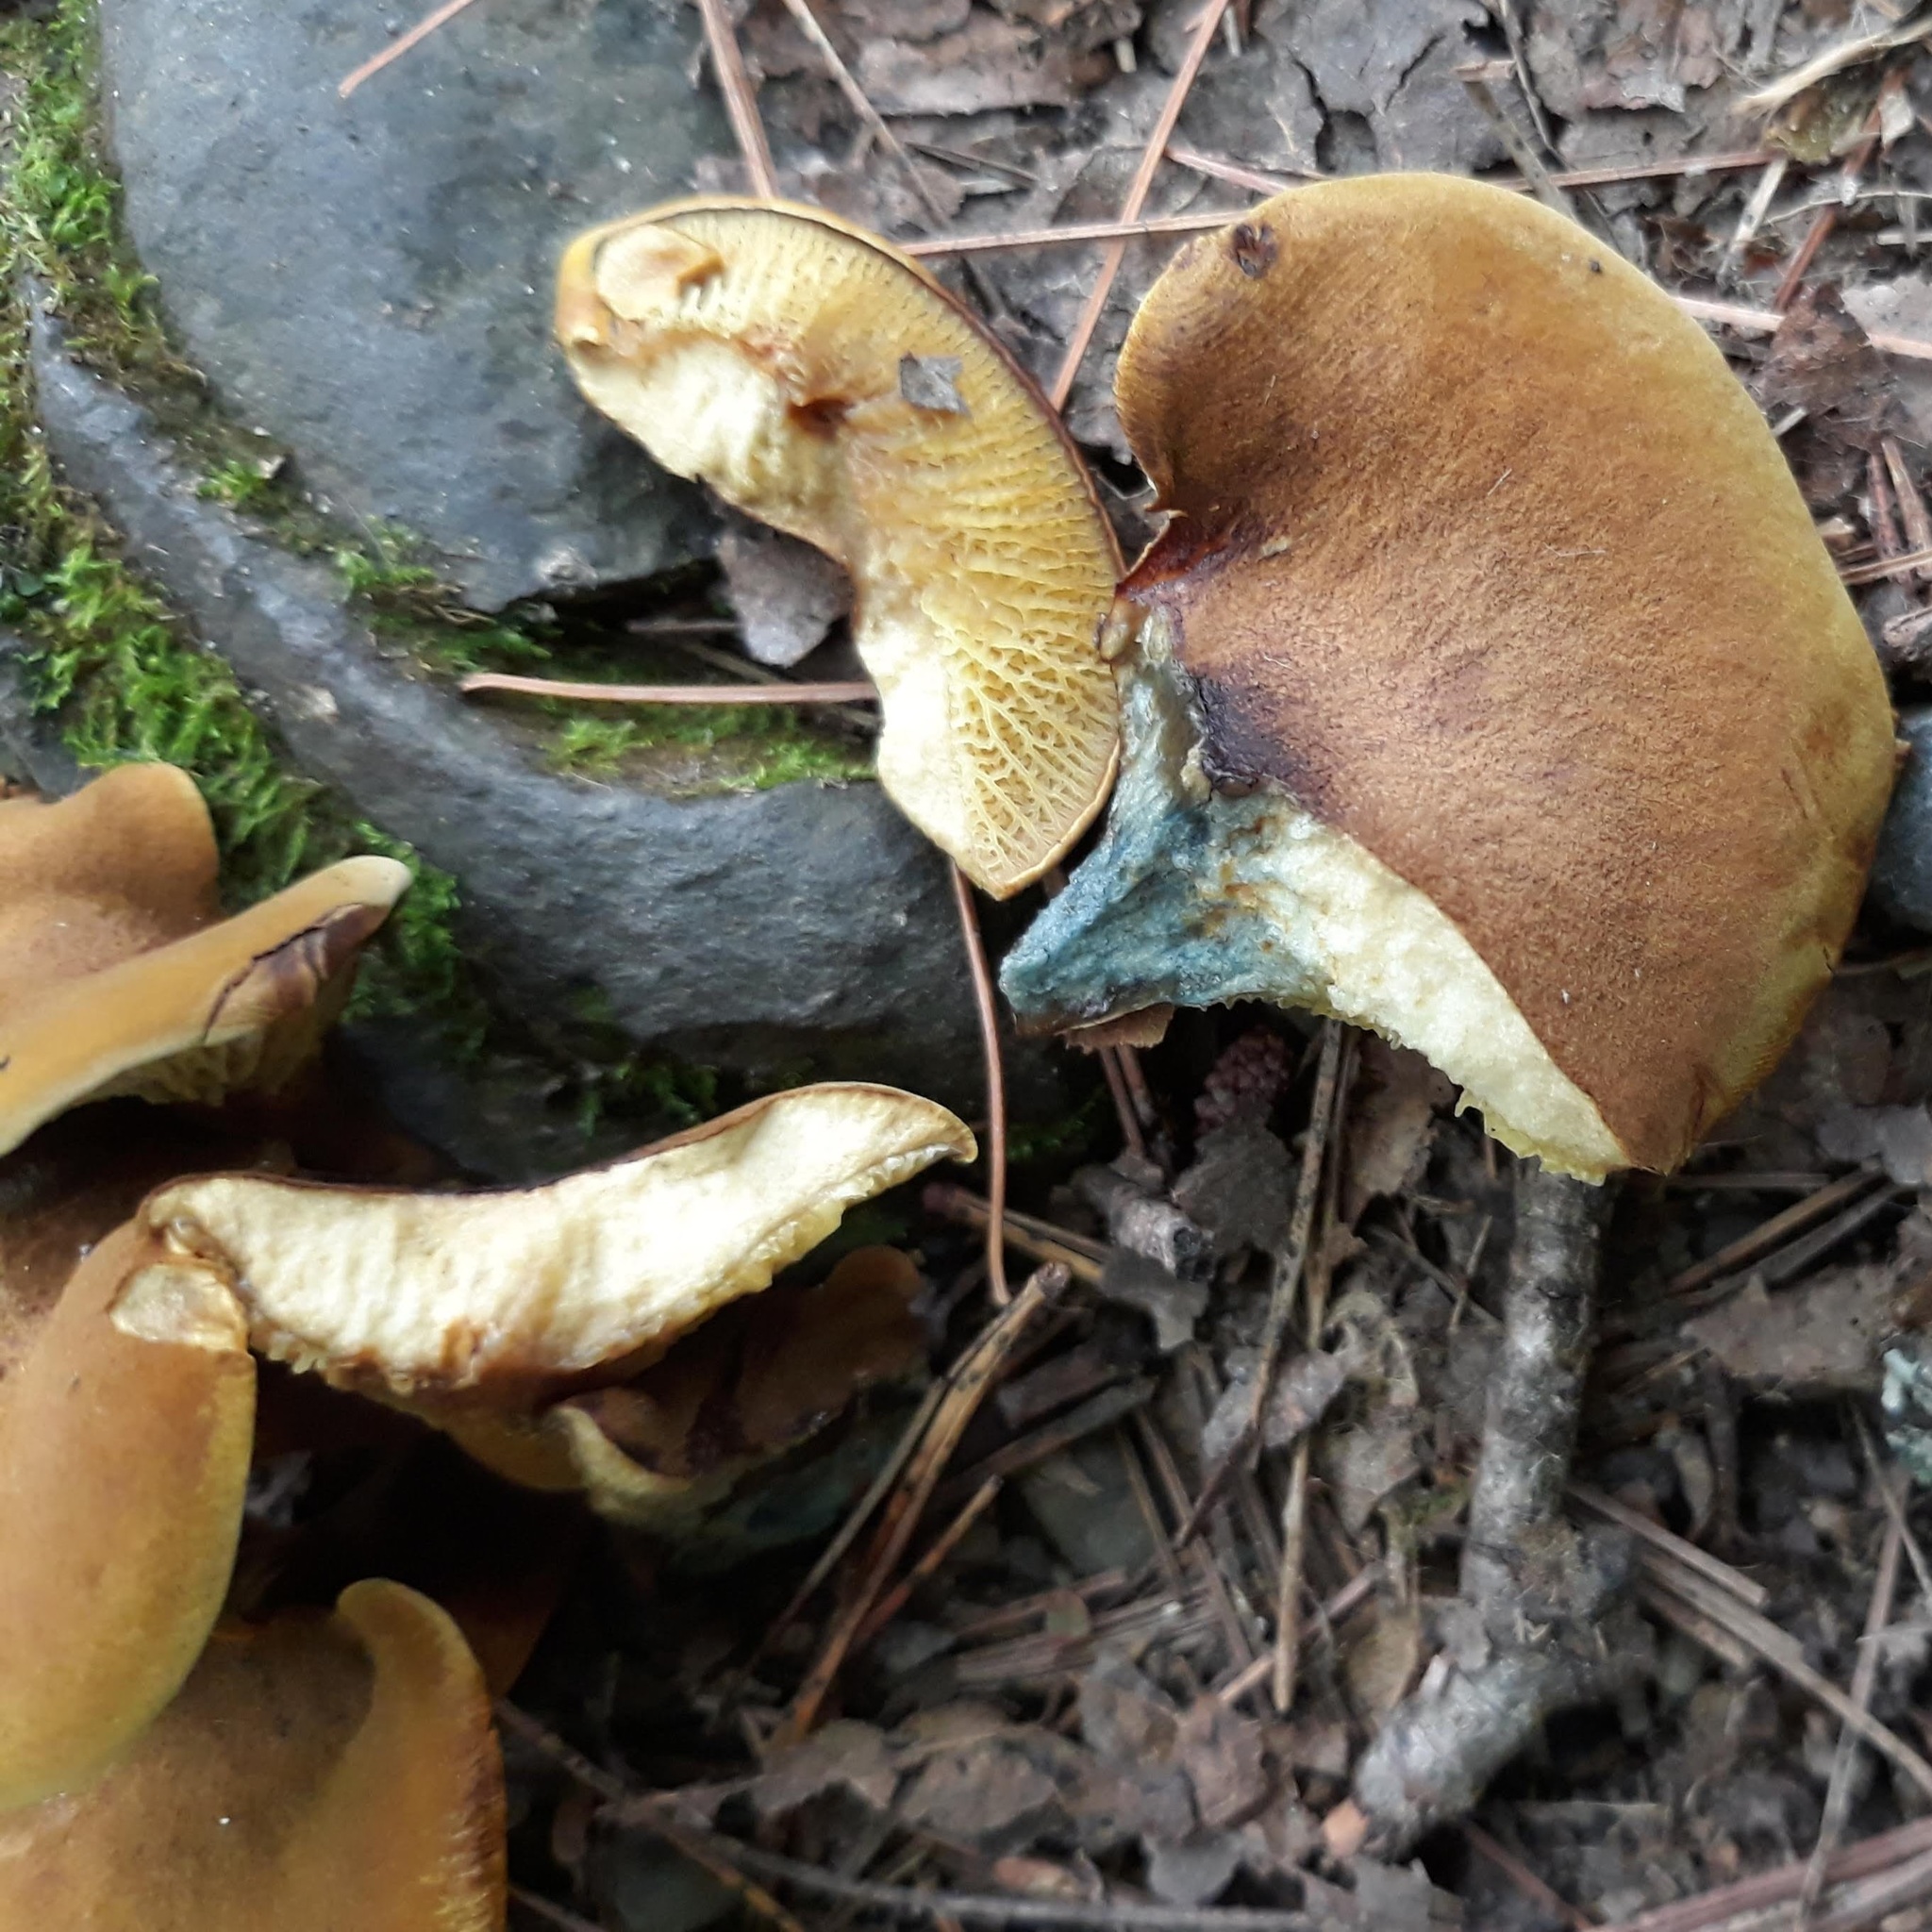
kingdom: Fungi
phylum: Basidiomycota
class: Agaricomycetes
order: Boletales
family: Boletinellaceae
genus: Boletinellus
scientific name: Boletinellus merulioides
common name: Ash tree bolete
